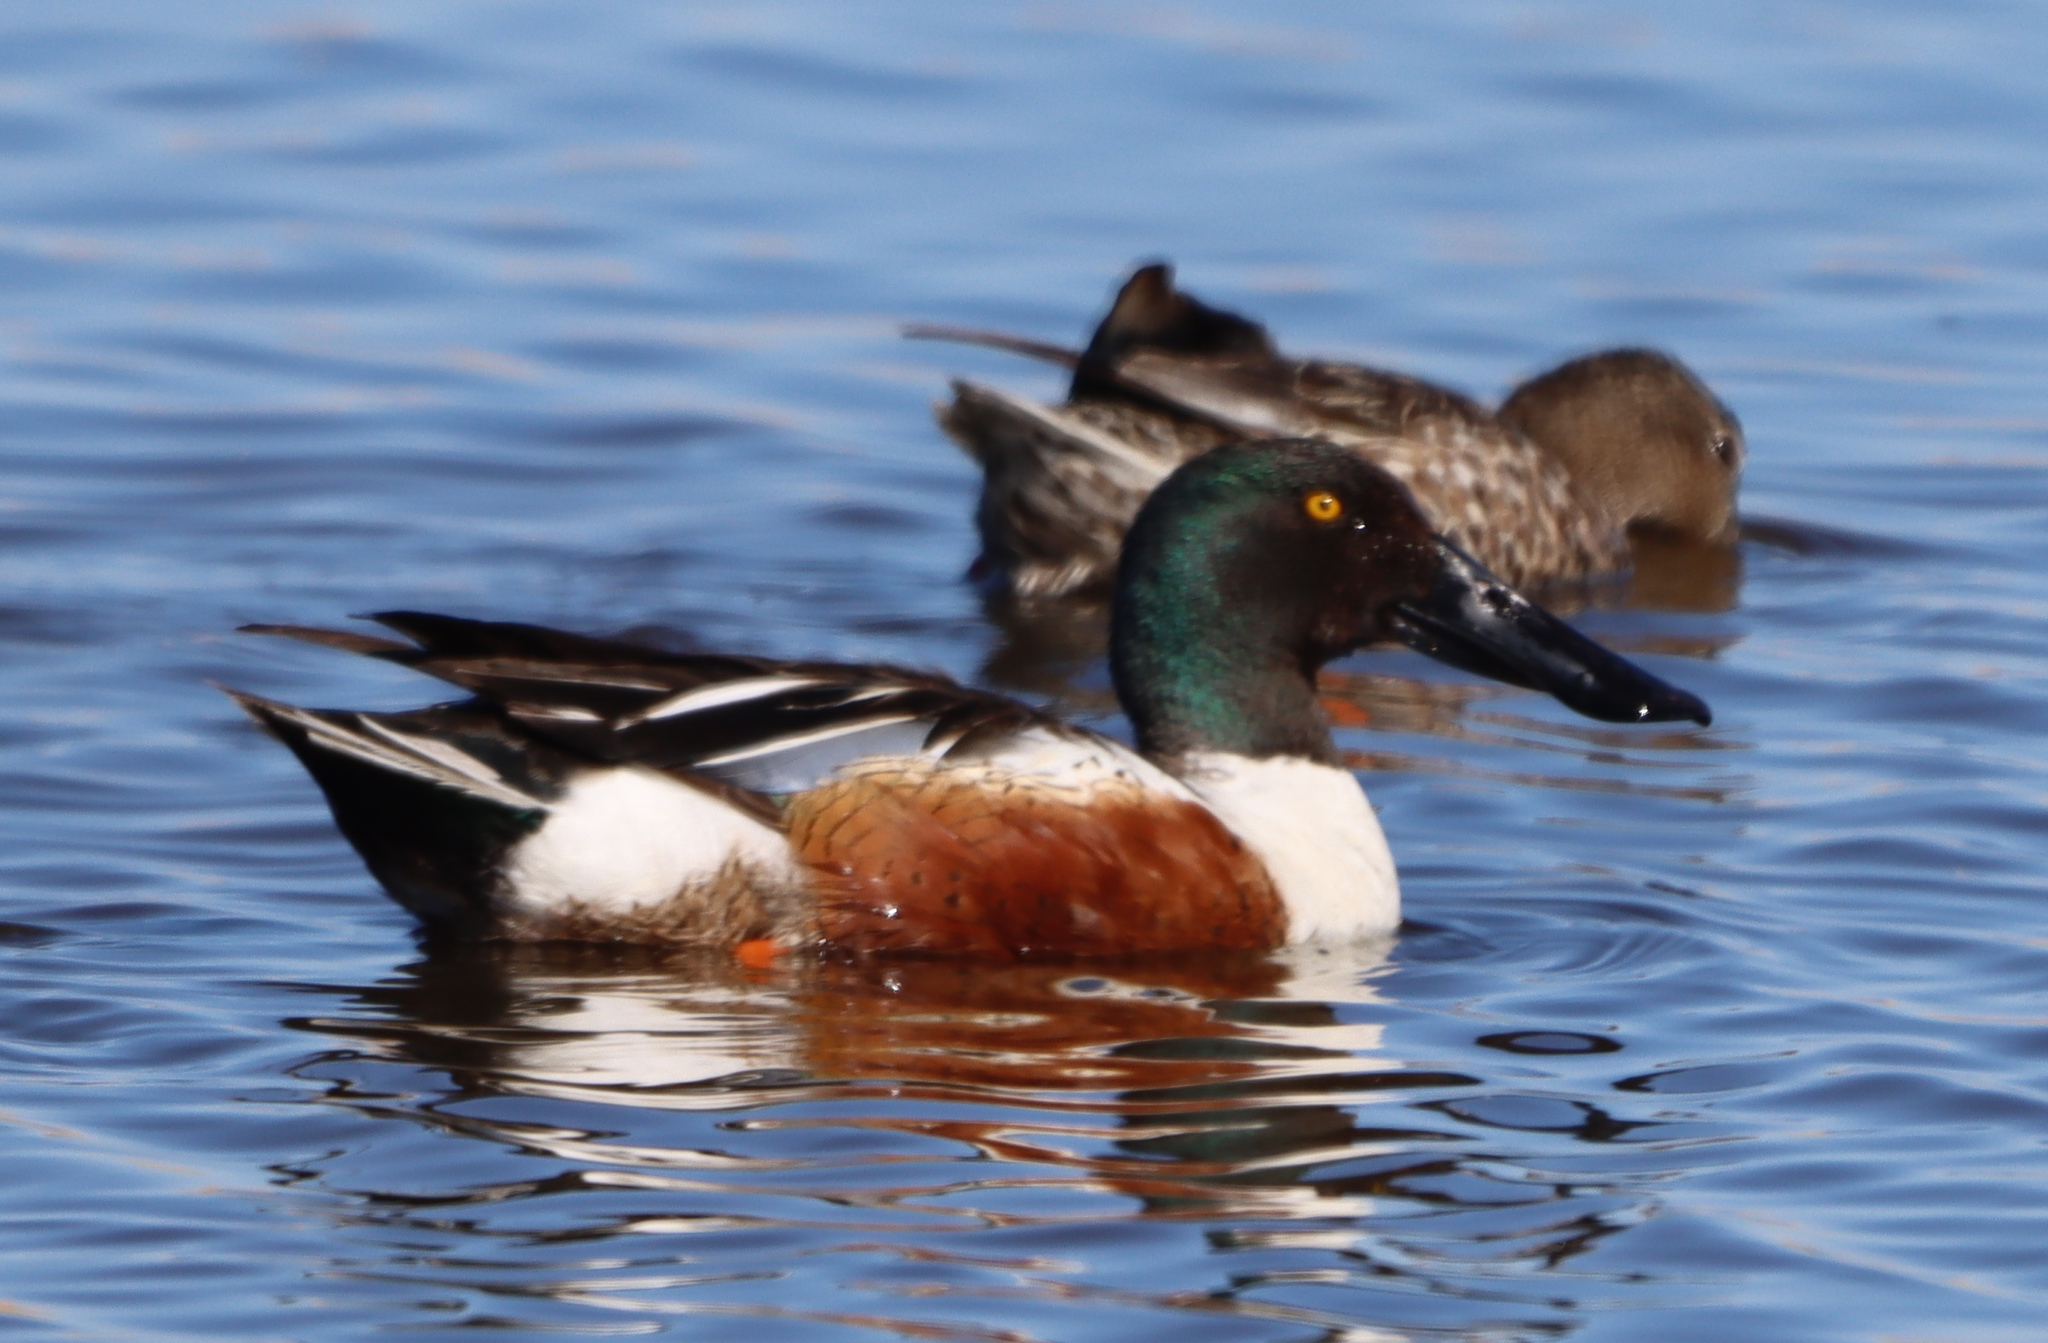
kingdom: Animalia
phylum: Chordata
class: Aves
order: Anseriformes
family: Anatidae
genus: Spatula
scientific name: Spatula clypeata
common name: Northern shoveler
